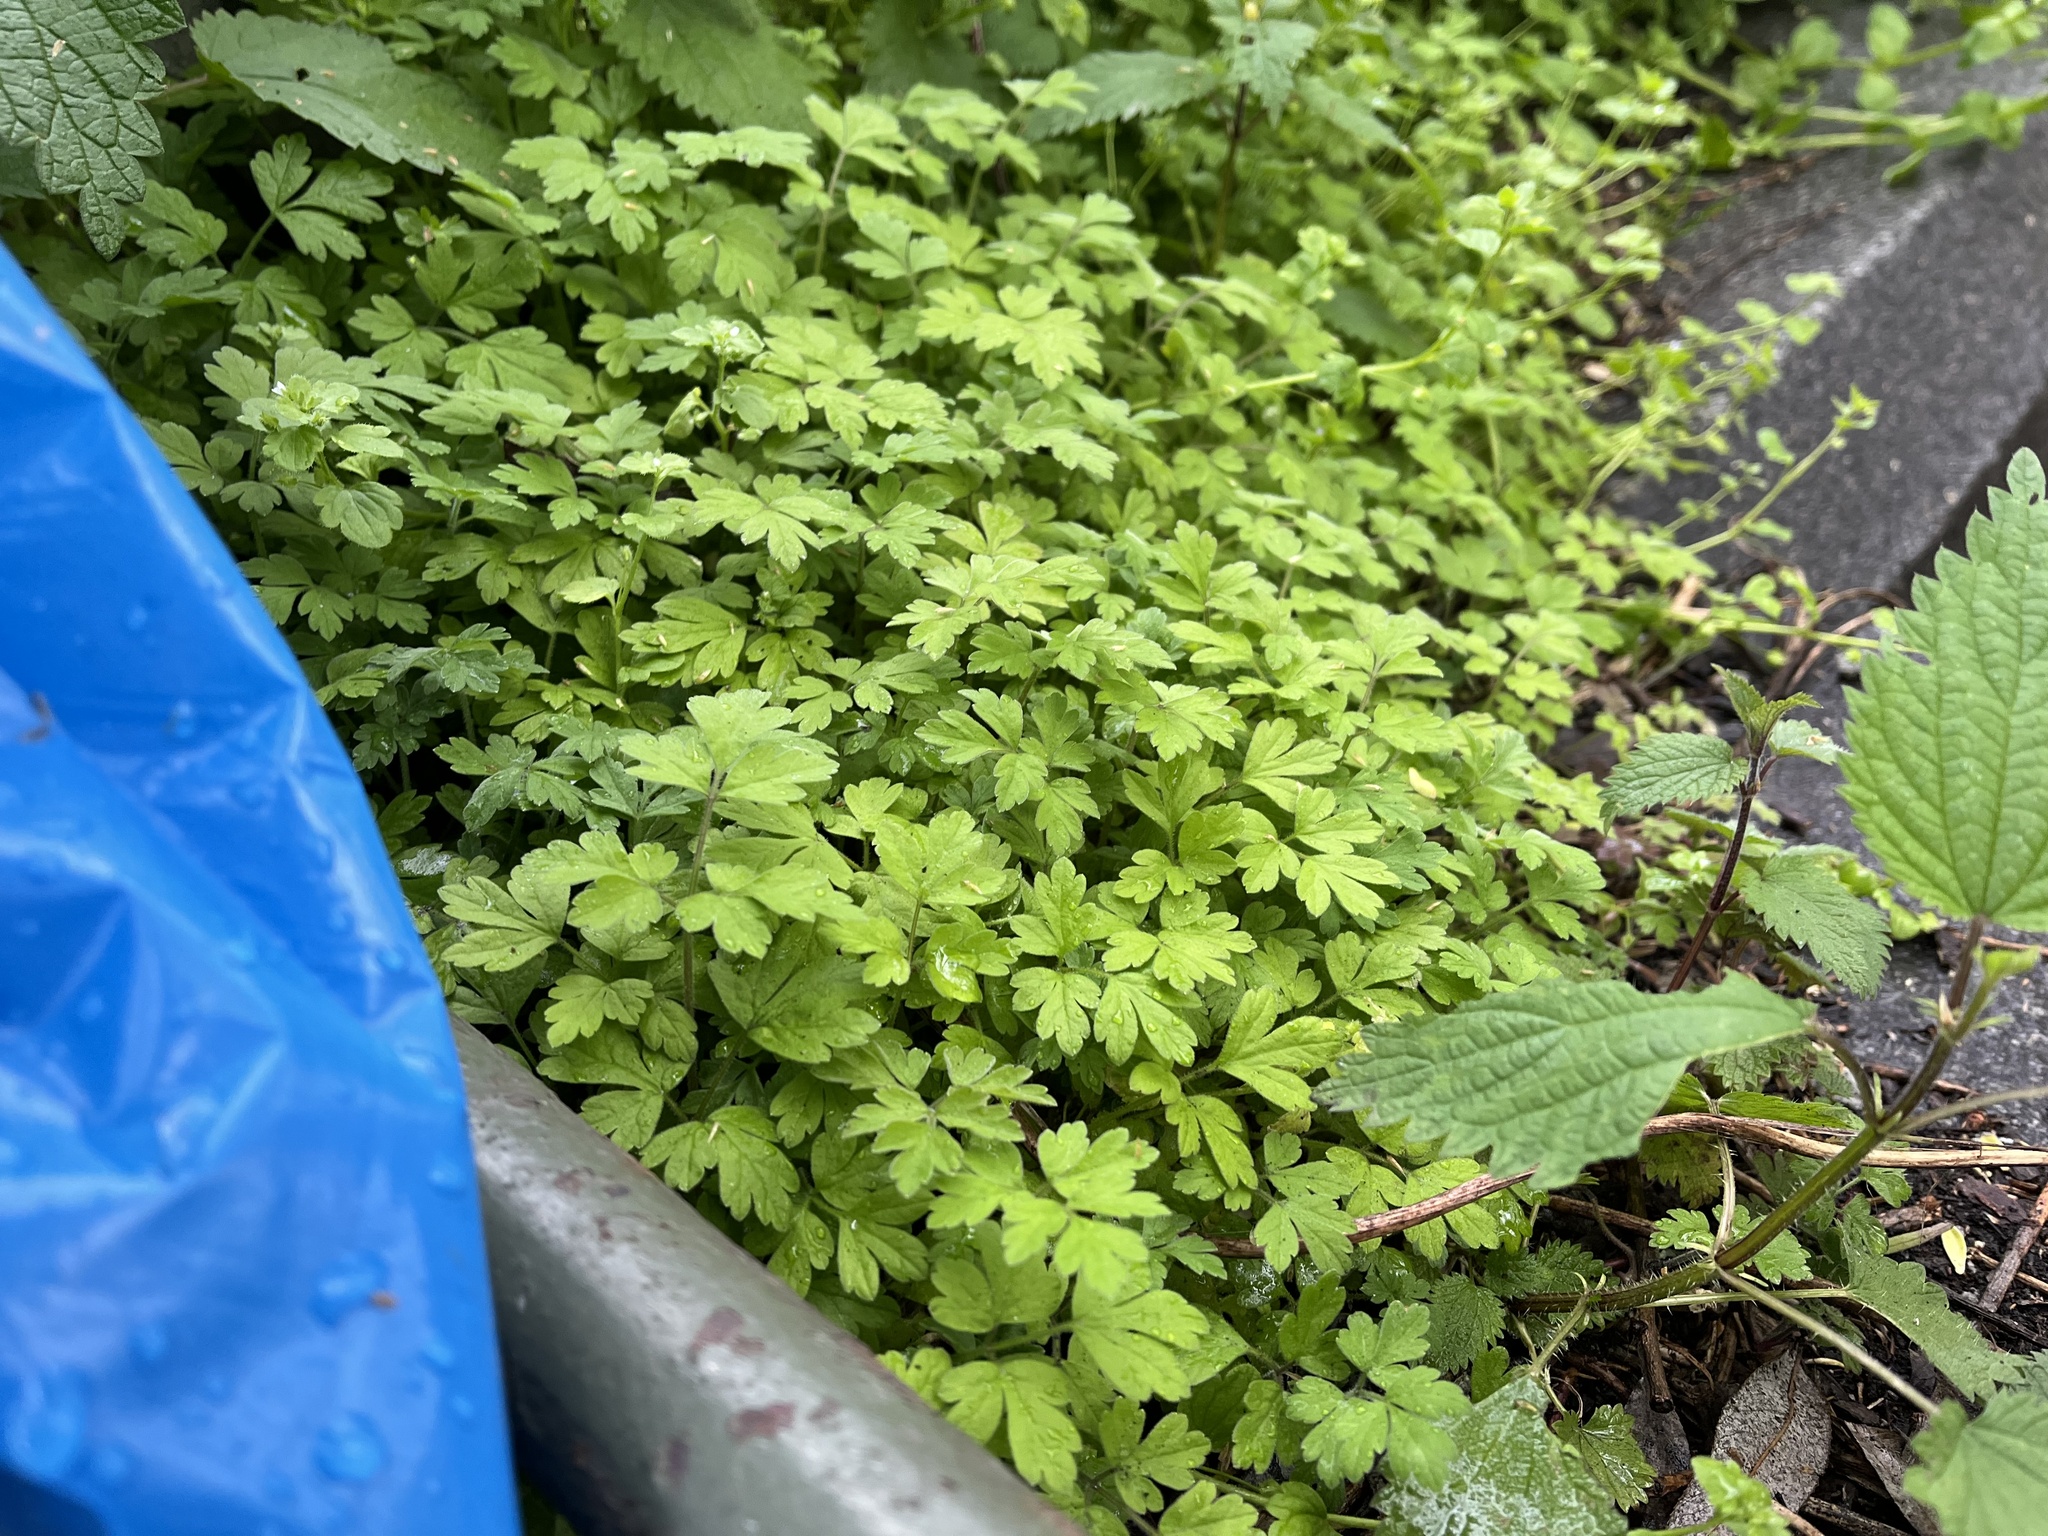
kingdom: Plantae
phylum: Tracheophyta
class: Magnoliopsida
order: Apiales
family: Apiaceae
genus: Chaerophyllum
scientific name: Chaerophyllum temulum
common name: Rough chervil
